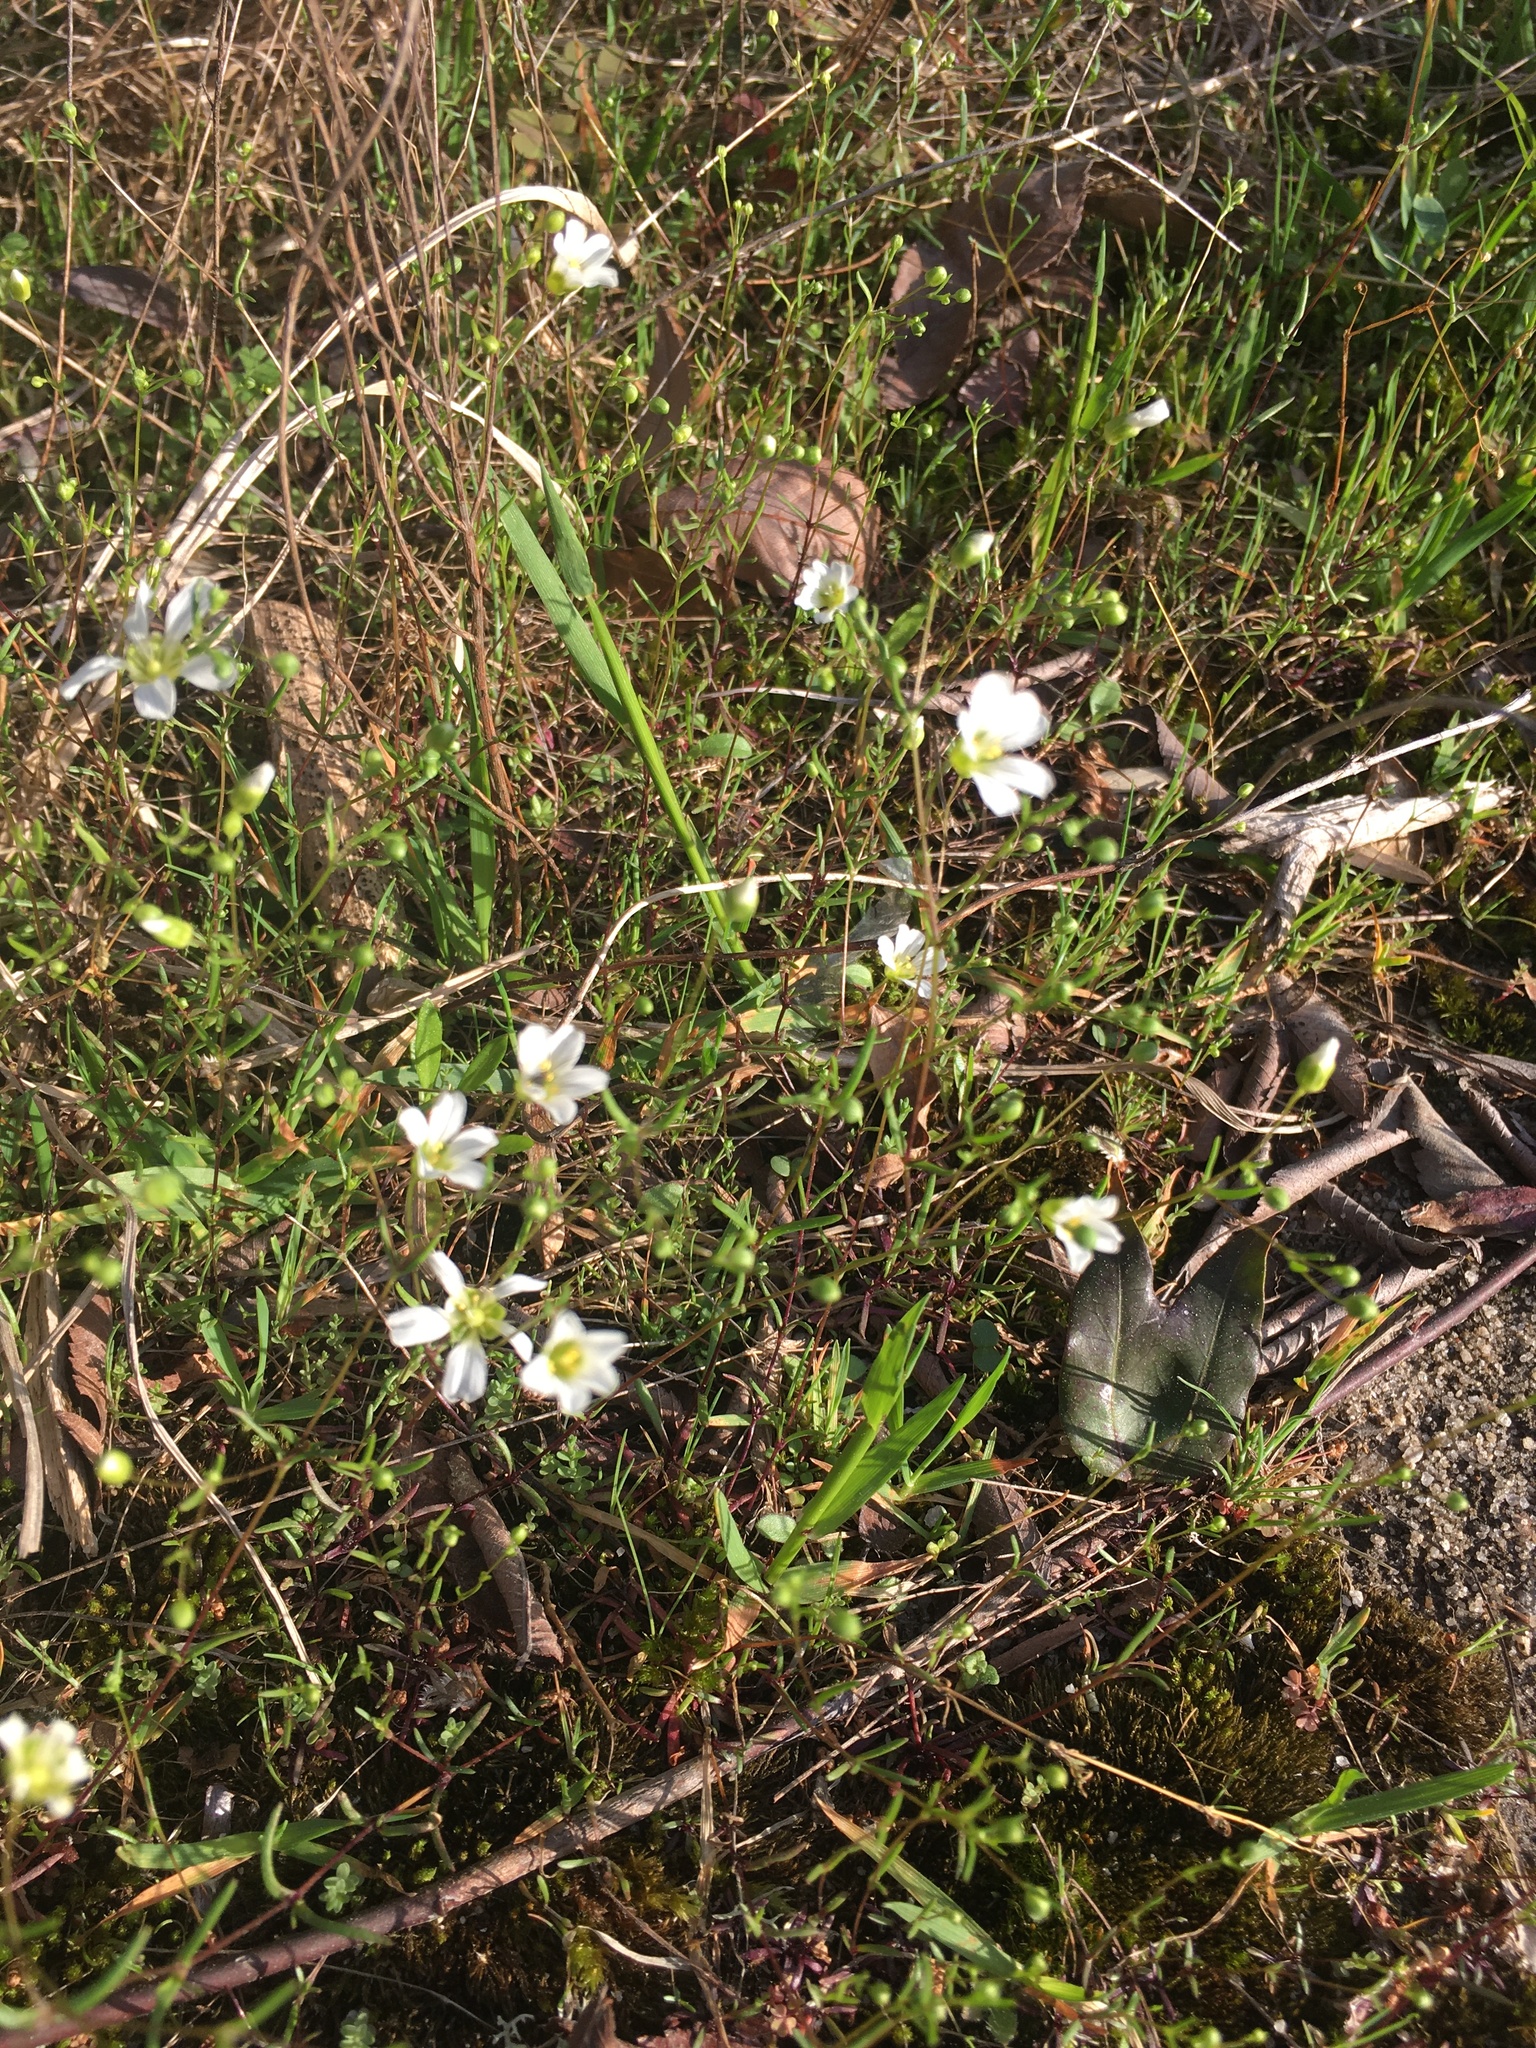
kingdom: Plantae
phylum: Tracheophyta
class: Magnoliopsida
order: Caryophyllales
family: Caryophyllaceae
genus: Geocarpon
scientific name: Geocarpon glabrum
